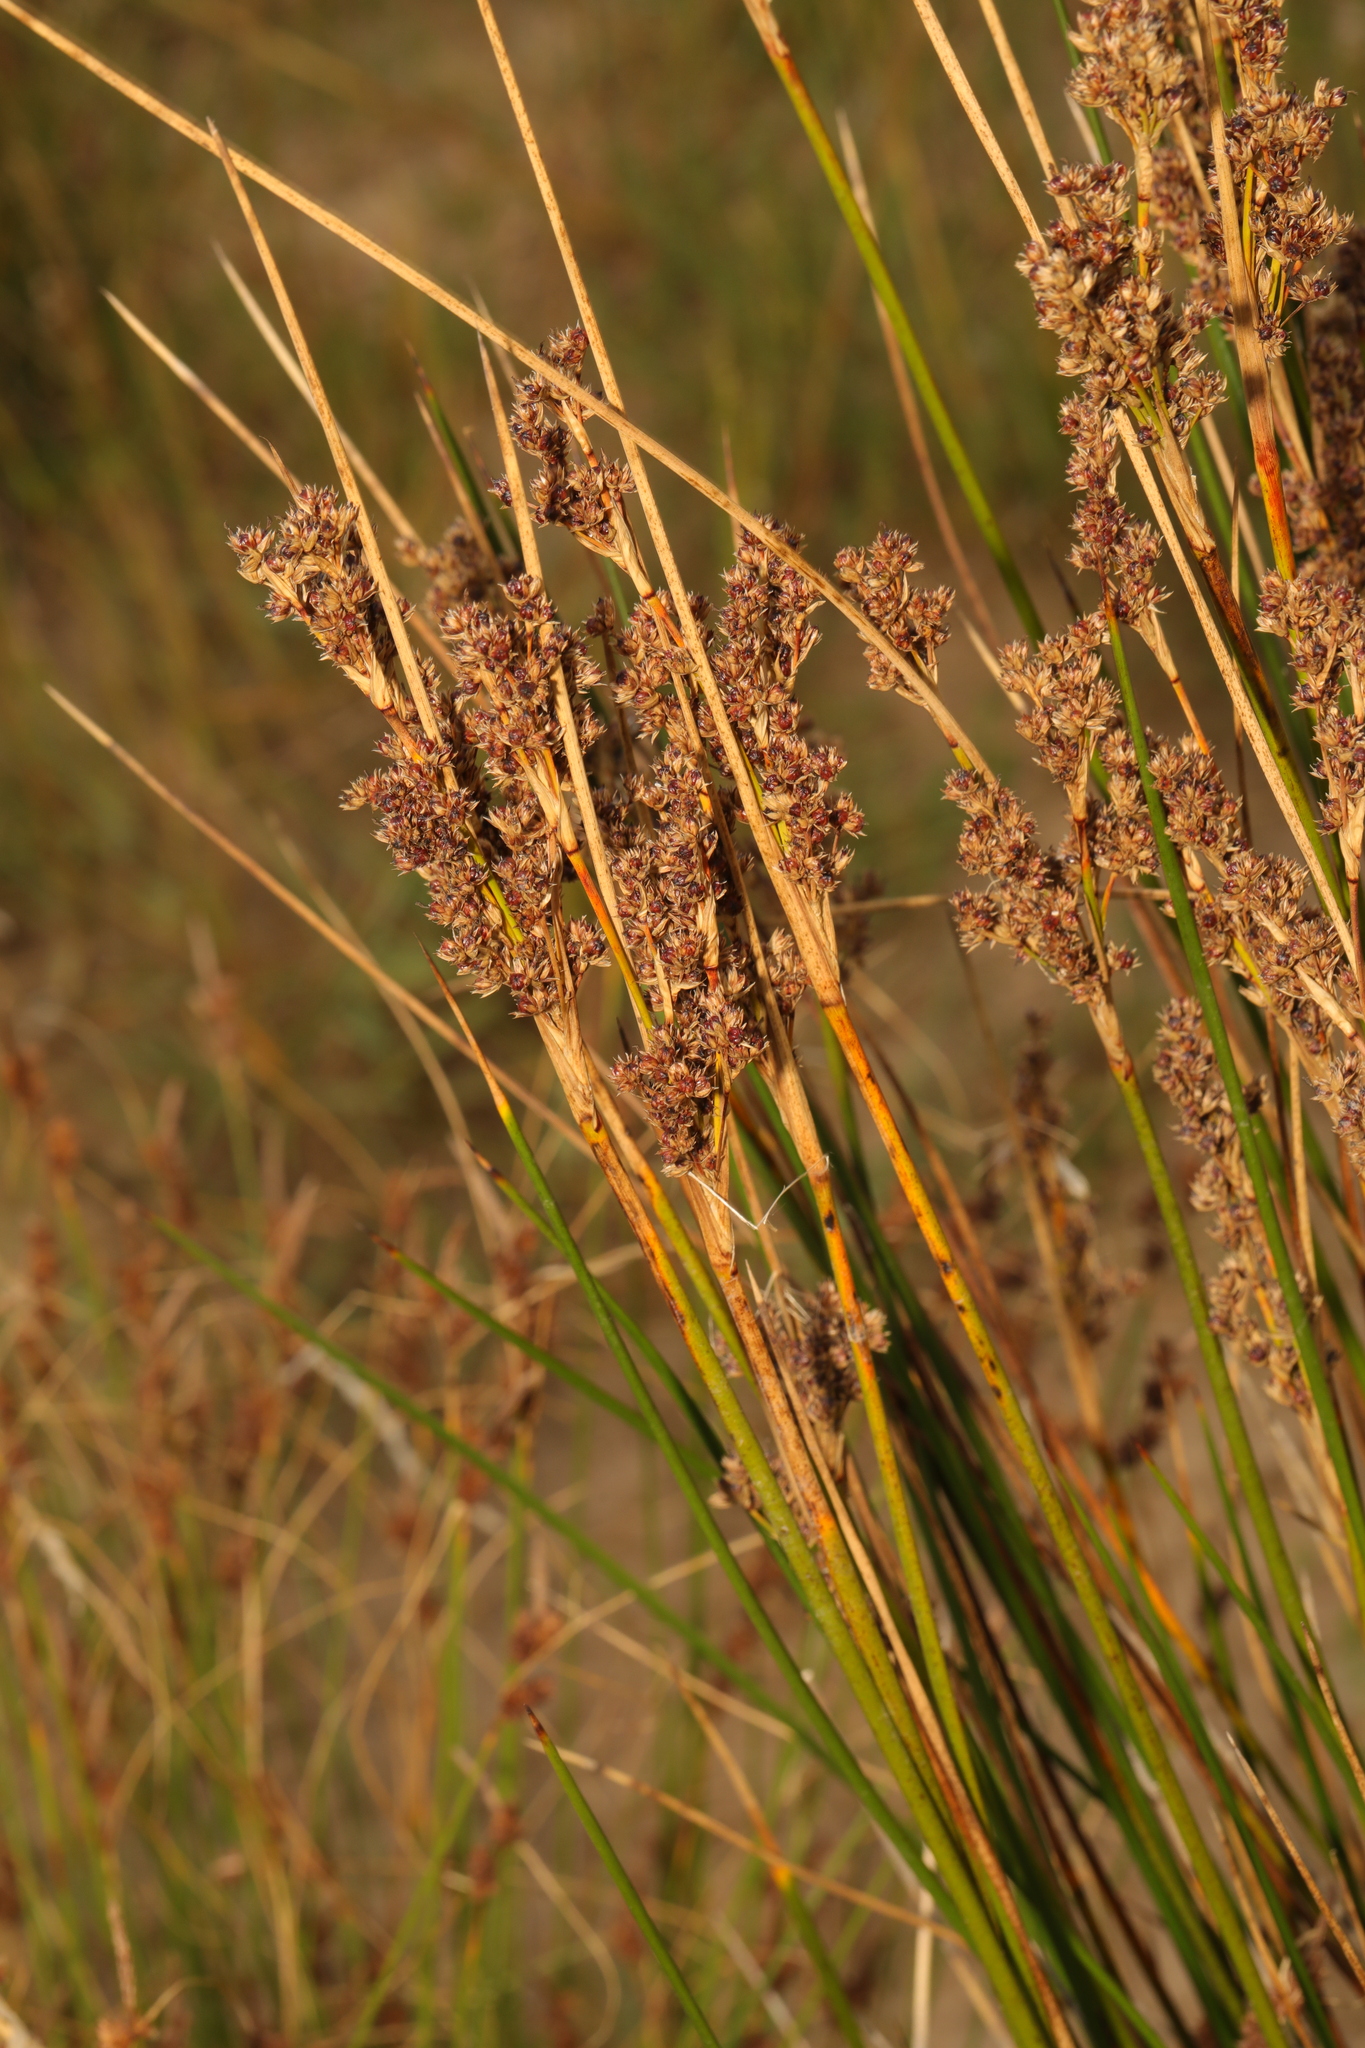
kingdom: Plantae
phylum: Tracheophyta
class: Liliopsida
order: Poales
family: Juncaceae
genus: Juncus
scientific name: Juncus maritimus
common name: Sea rush
